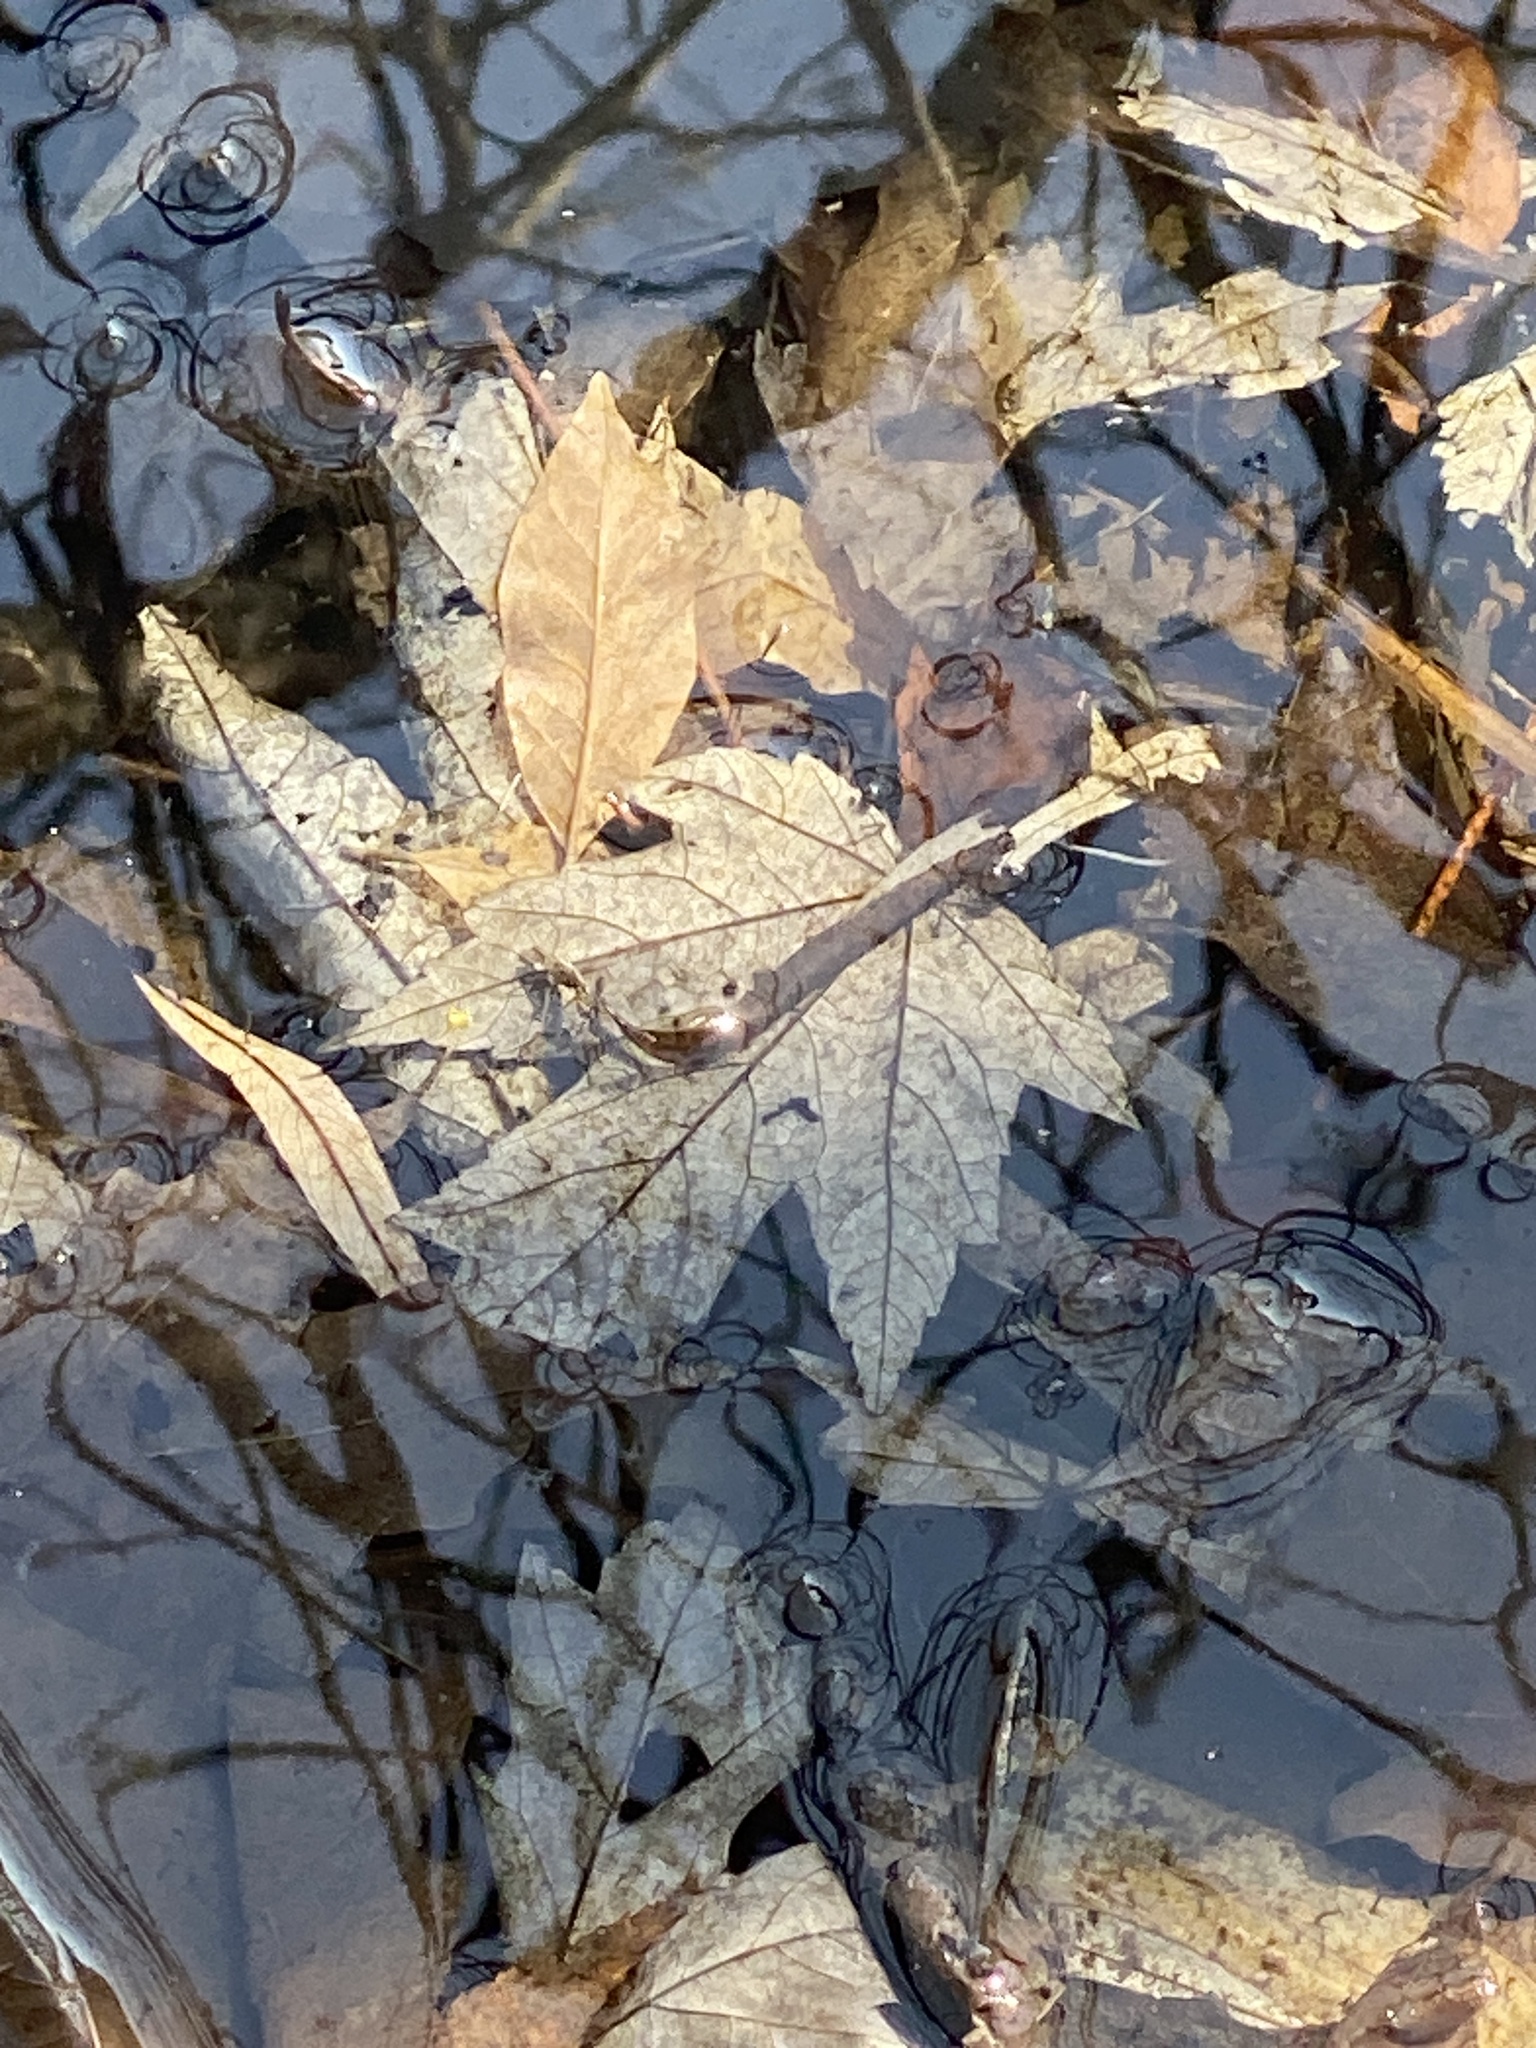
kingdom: Plantae
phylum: Tracheophyta
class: Magnoliopsida
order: Sapindales
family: Sapindaceae
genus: Acer
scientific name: Acer saccharinum
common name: Silver maple
